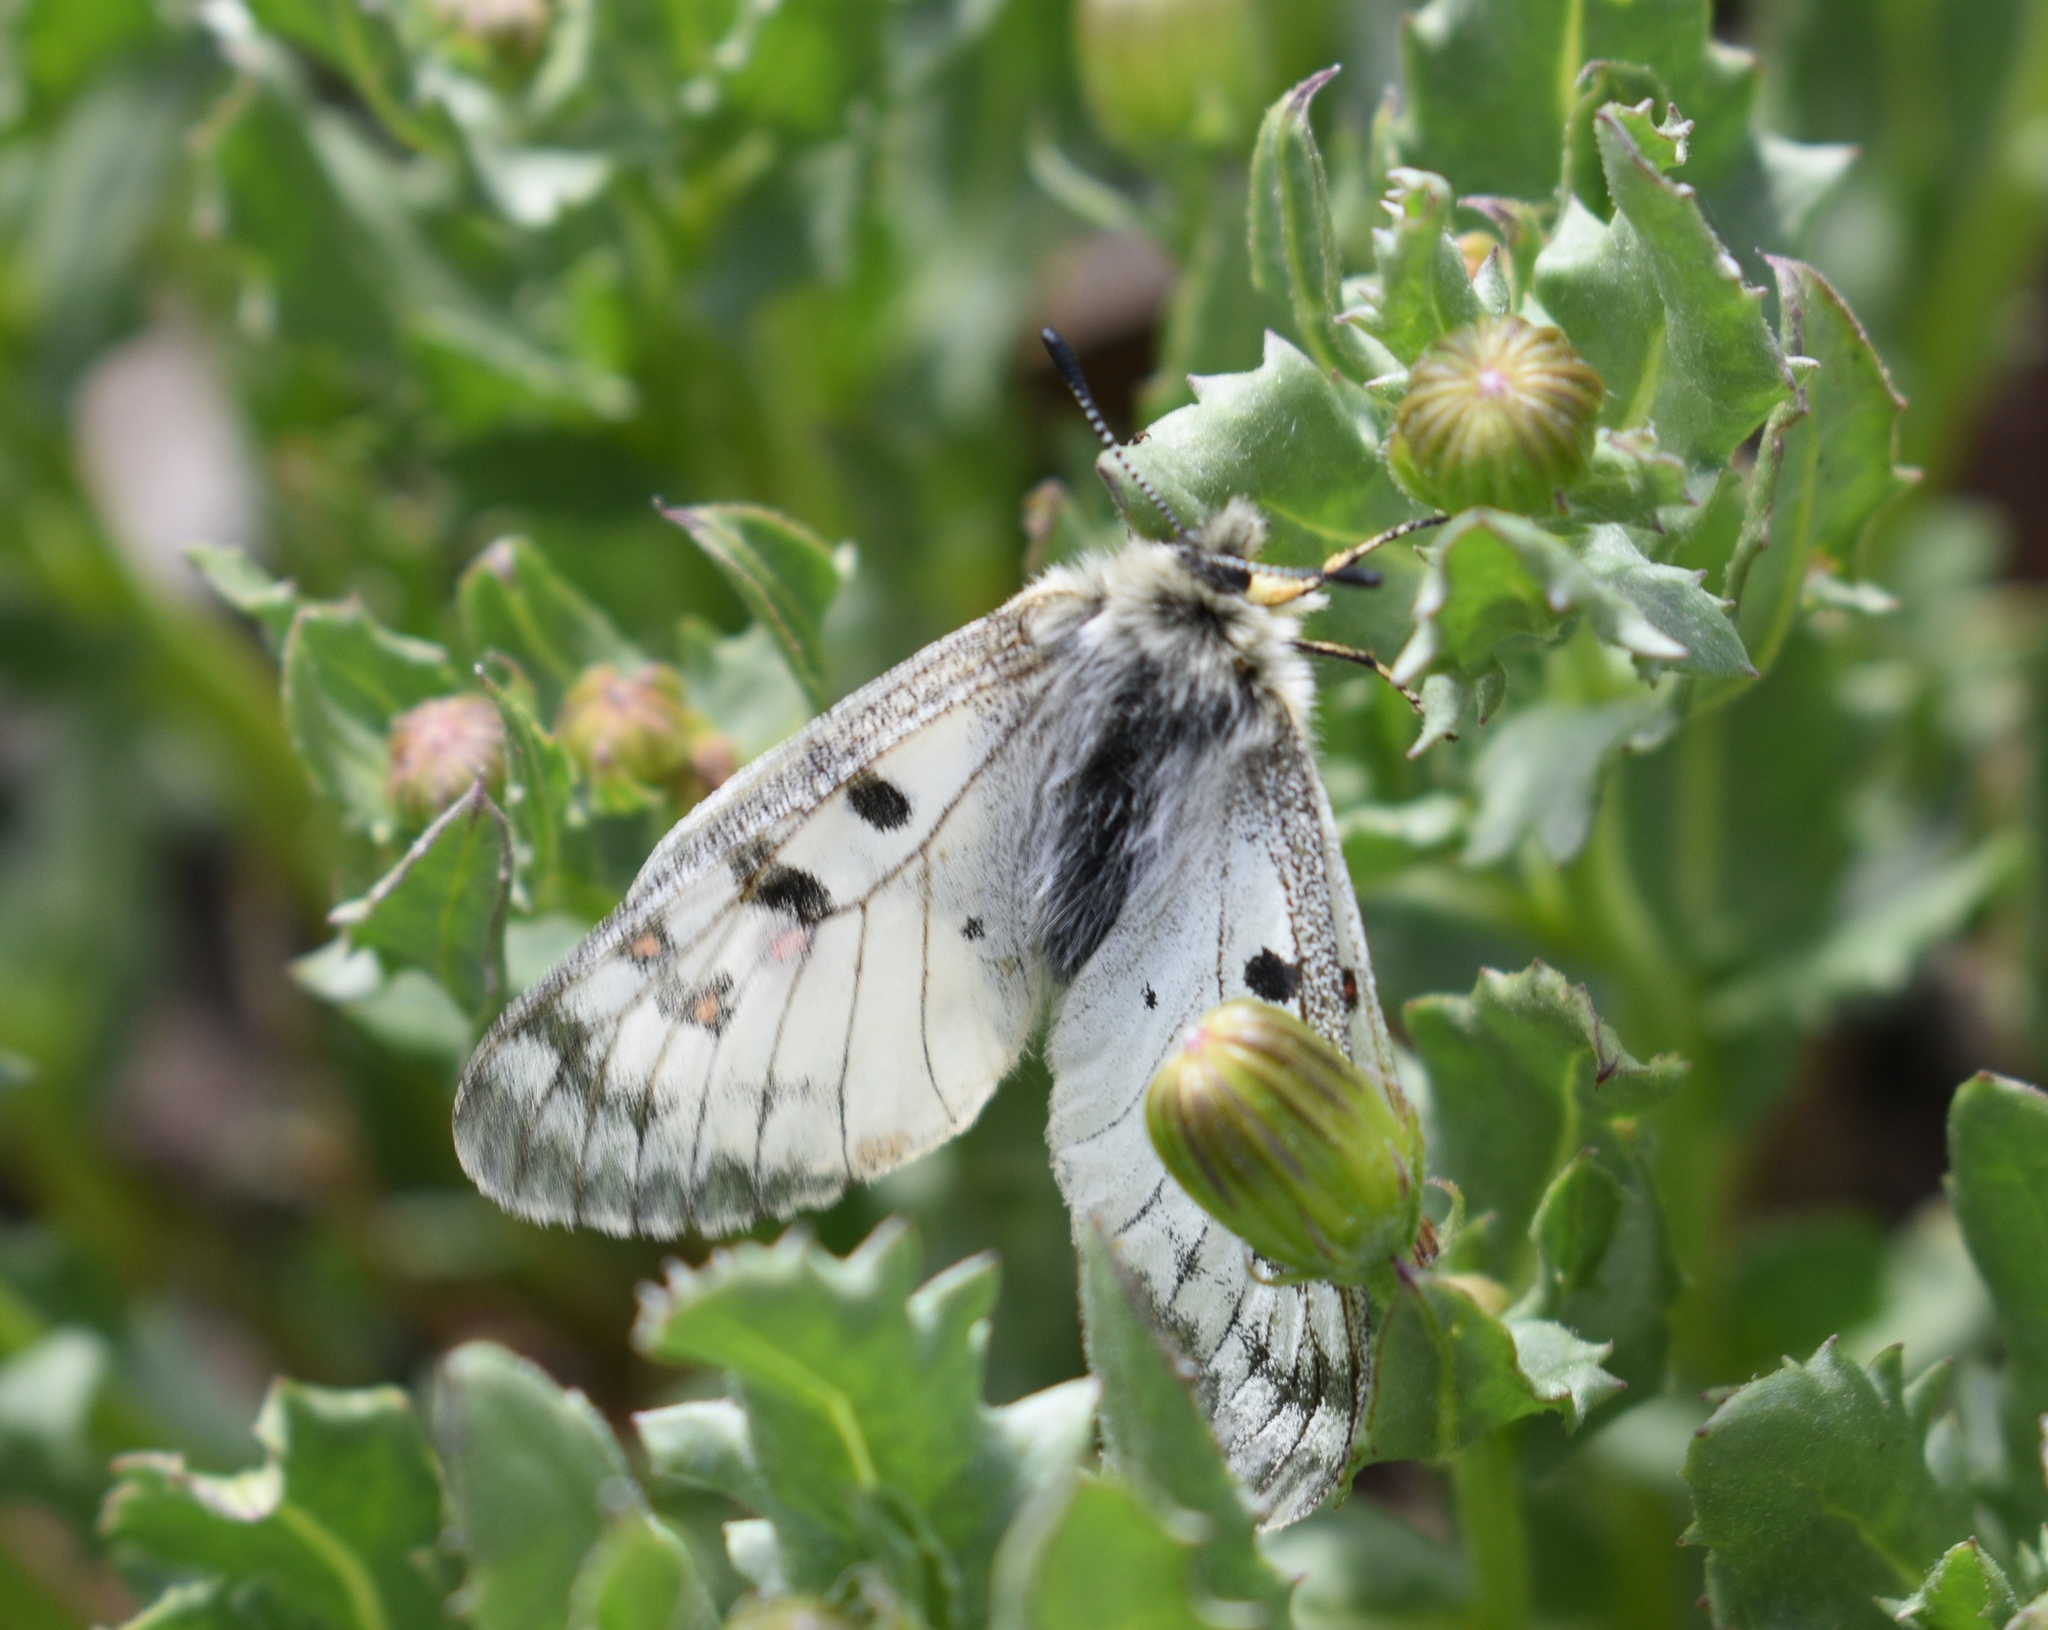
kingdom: Animalia
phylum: Arthropoda
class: Insecta
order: Lepidoptera
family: Papilionidae
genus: Parnassius
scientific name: Parnassius smintheus
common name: Mountain parnassian
